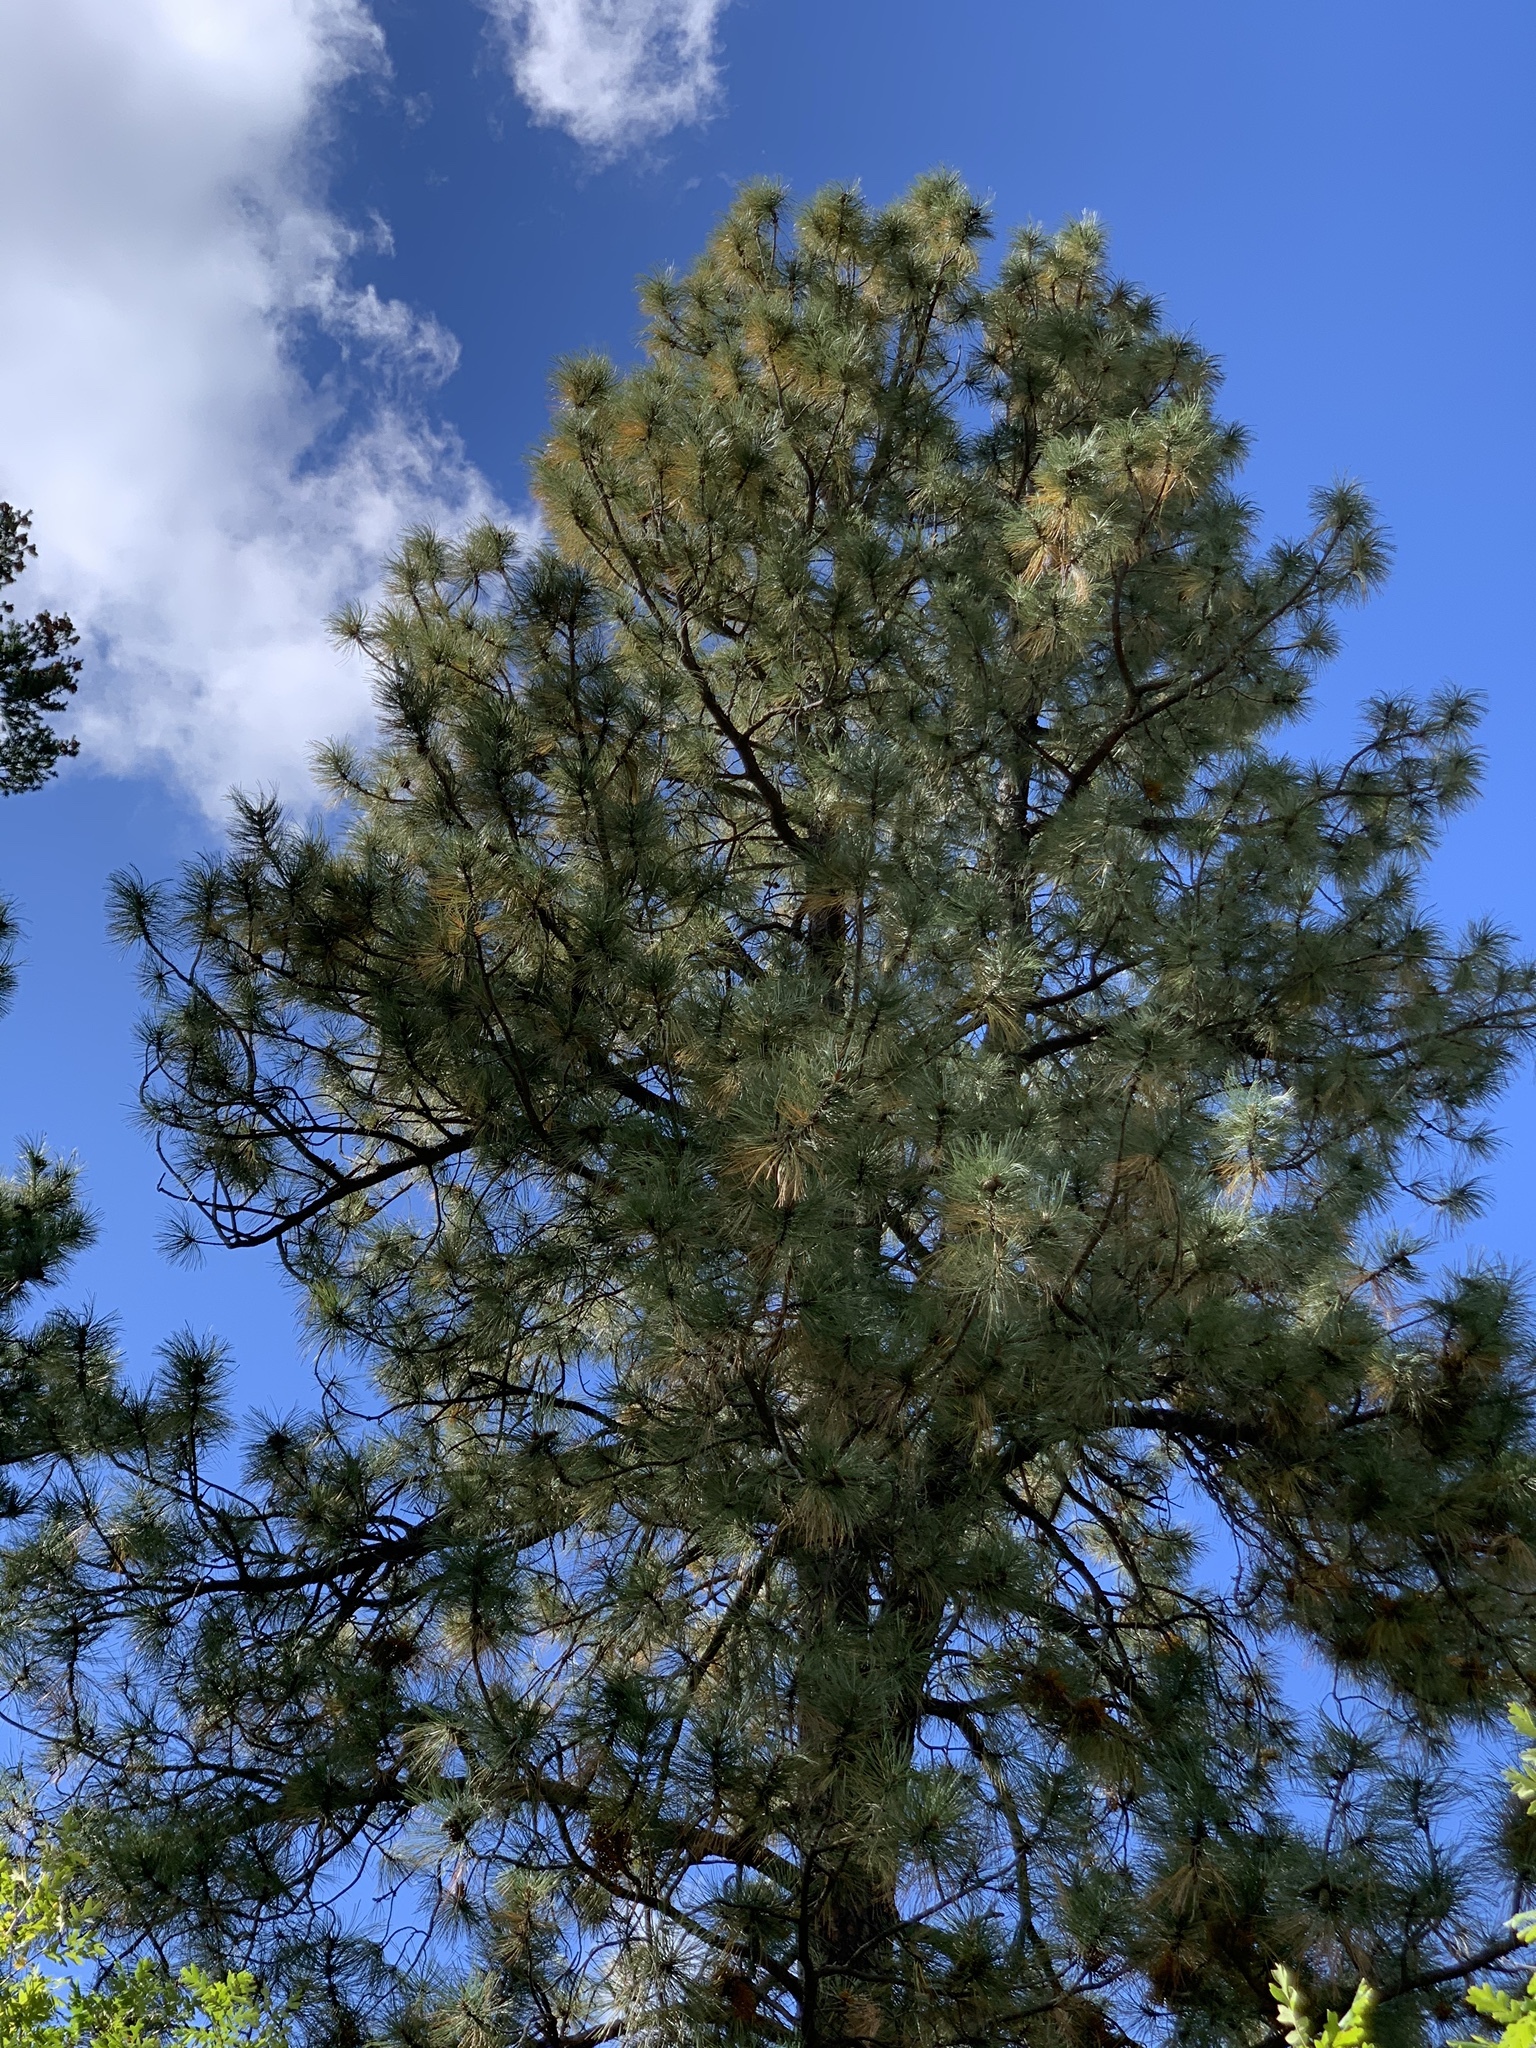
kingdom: Plantae
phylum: Tracheophyta
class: Pinopsida
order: Pinales
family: Pinaceae
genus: Pinus
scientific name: Pinus ponderosa
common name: Western yellow-pine
